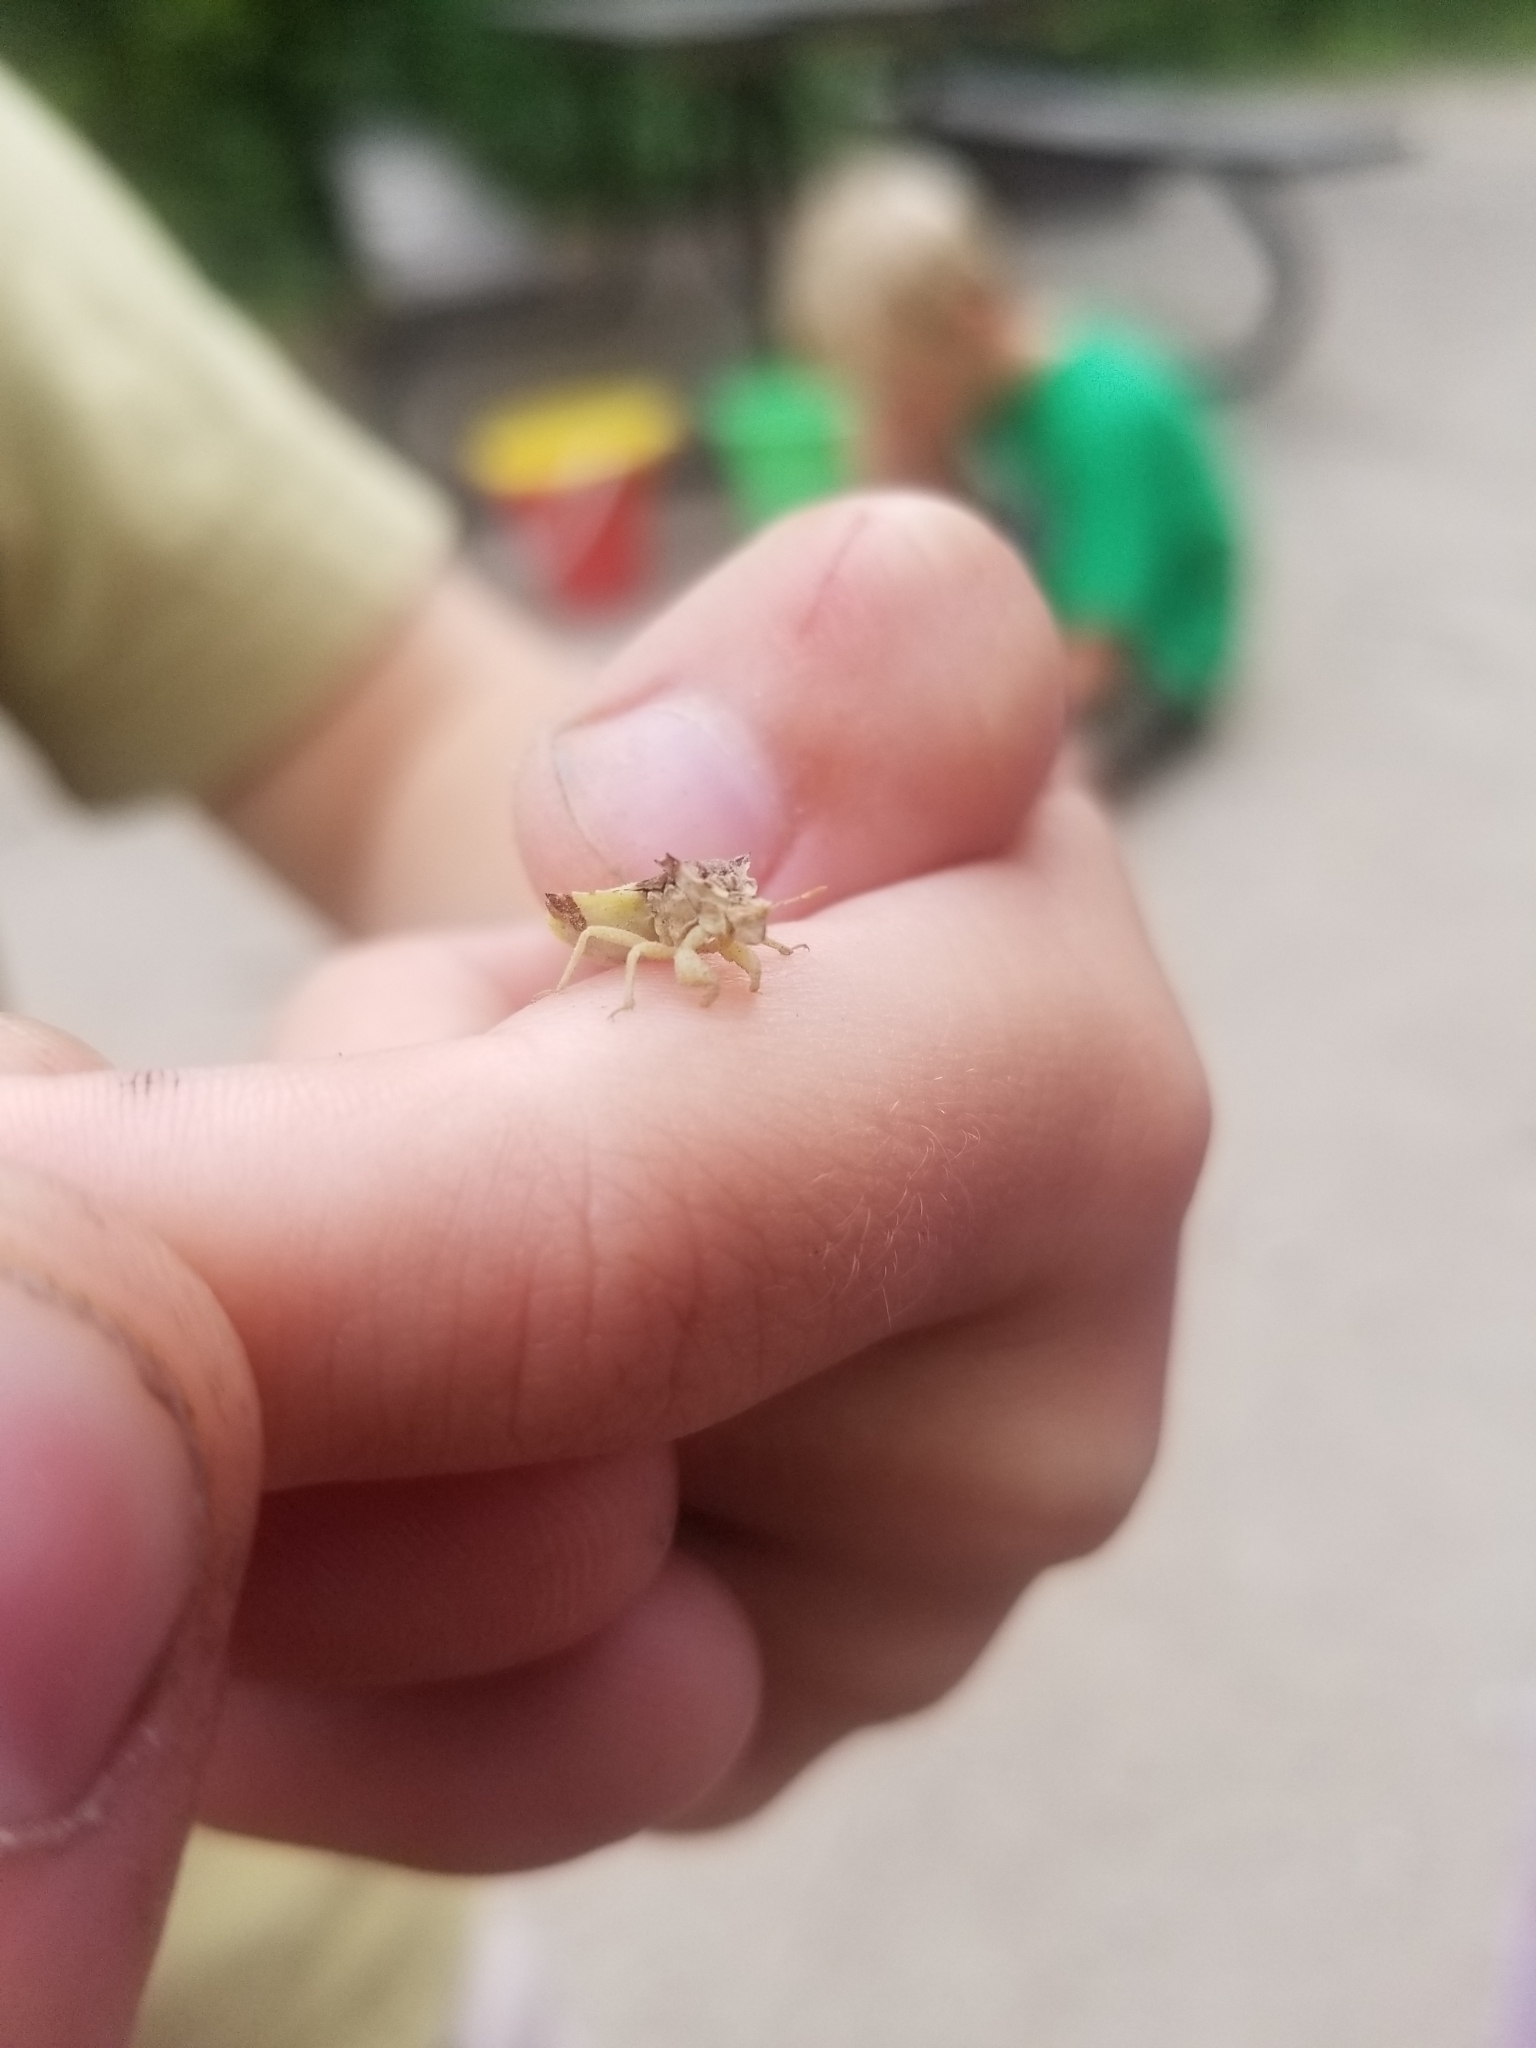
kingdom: Animalia
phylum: Arthropoda
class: Insecta
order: Hemiptera
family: Reduviidae
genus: Phymata
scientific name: Phymata americana
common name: Jagged ambush bug
